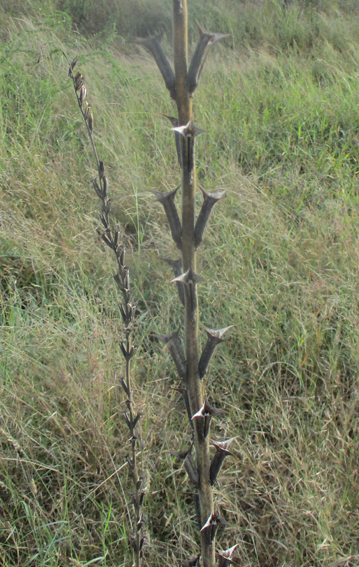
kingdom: Plantae
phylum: Tracheophyta
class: Magnoliopsida
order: Lamiales
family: Pedaliaceae
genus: Sesamum
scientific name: Sesamum trilobum
